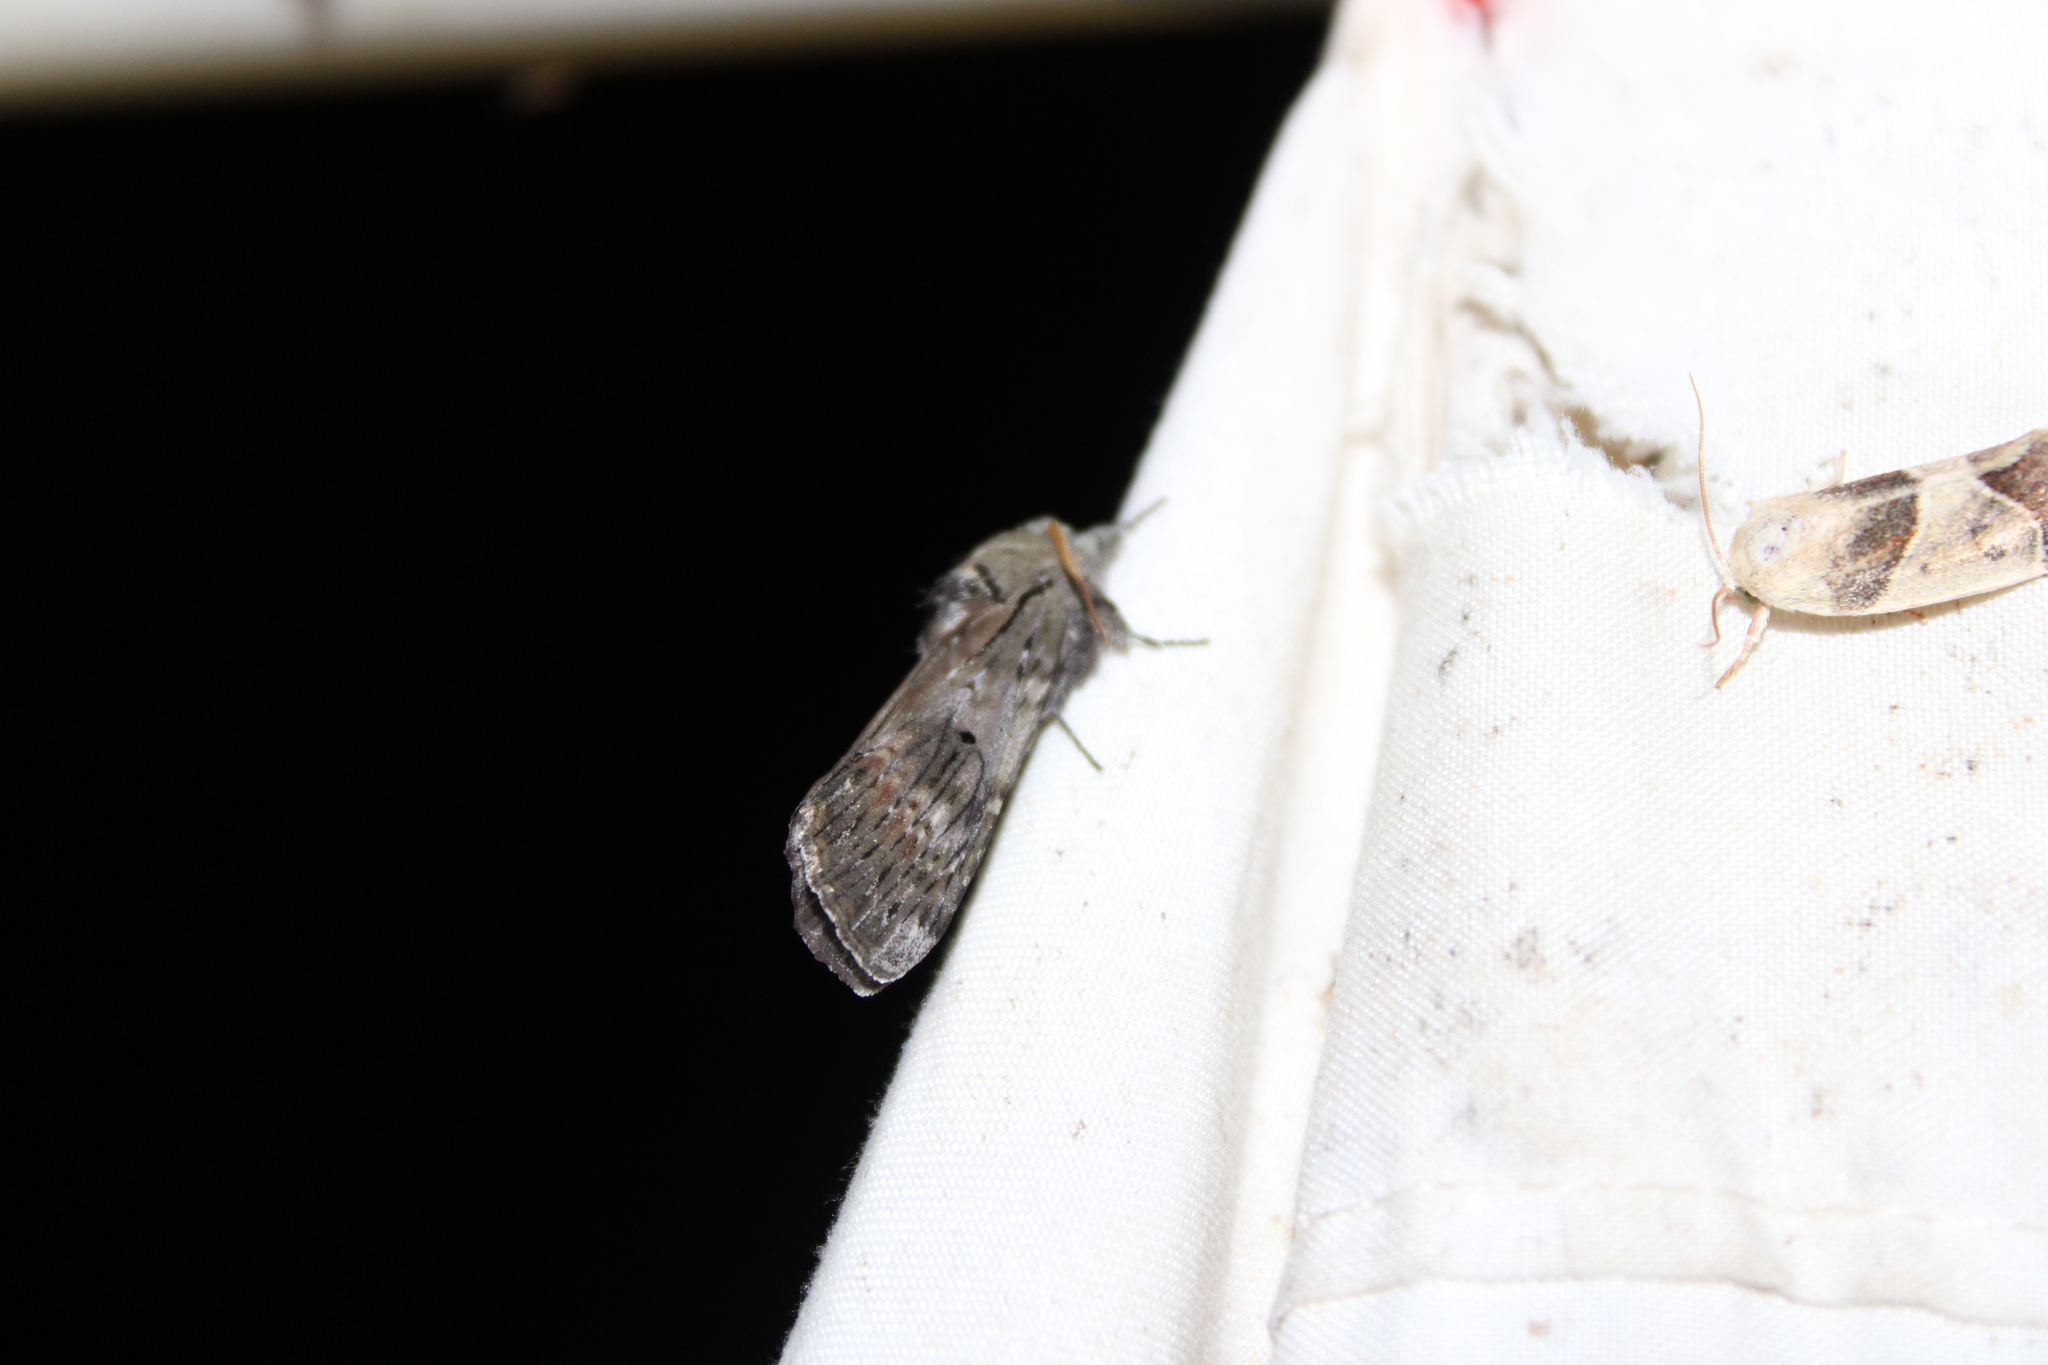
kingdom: Animalia
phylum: Arthropoda
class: Insecta
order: Lepidoptera
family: Notodontidae
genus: Schizura
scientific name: Schizura
